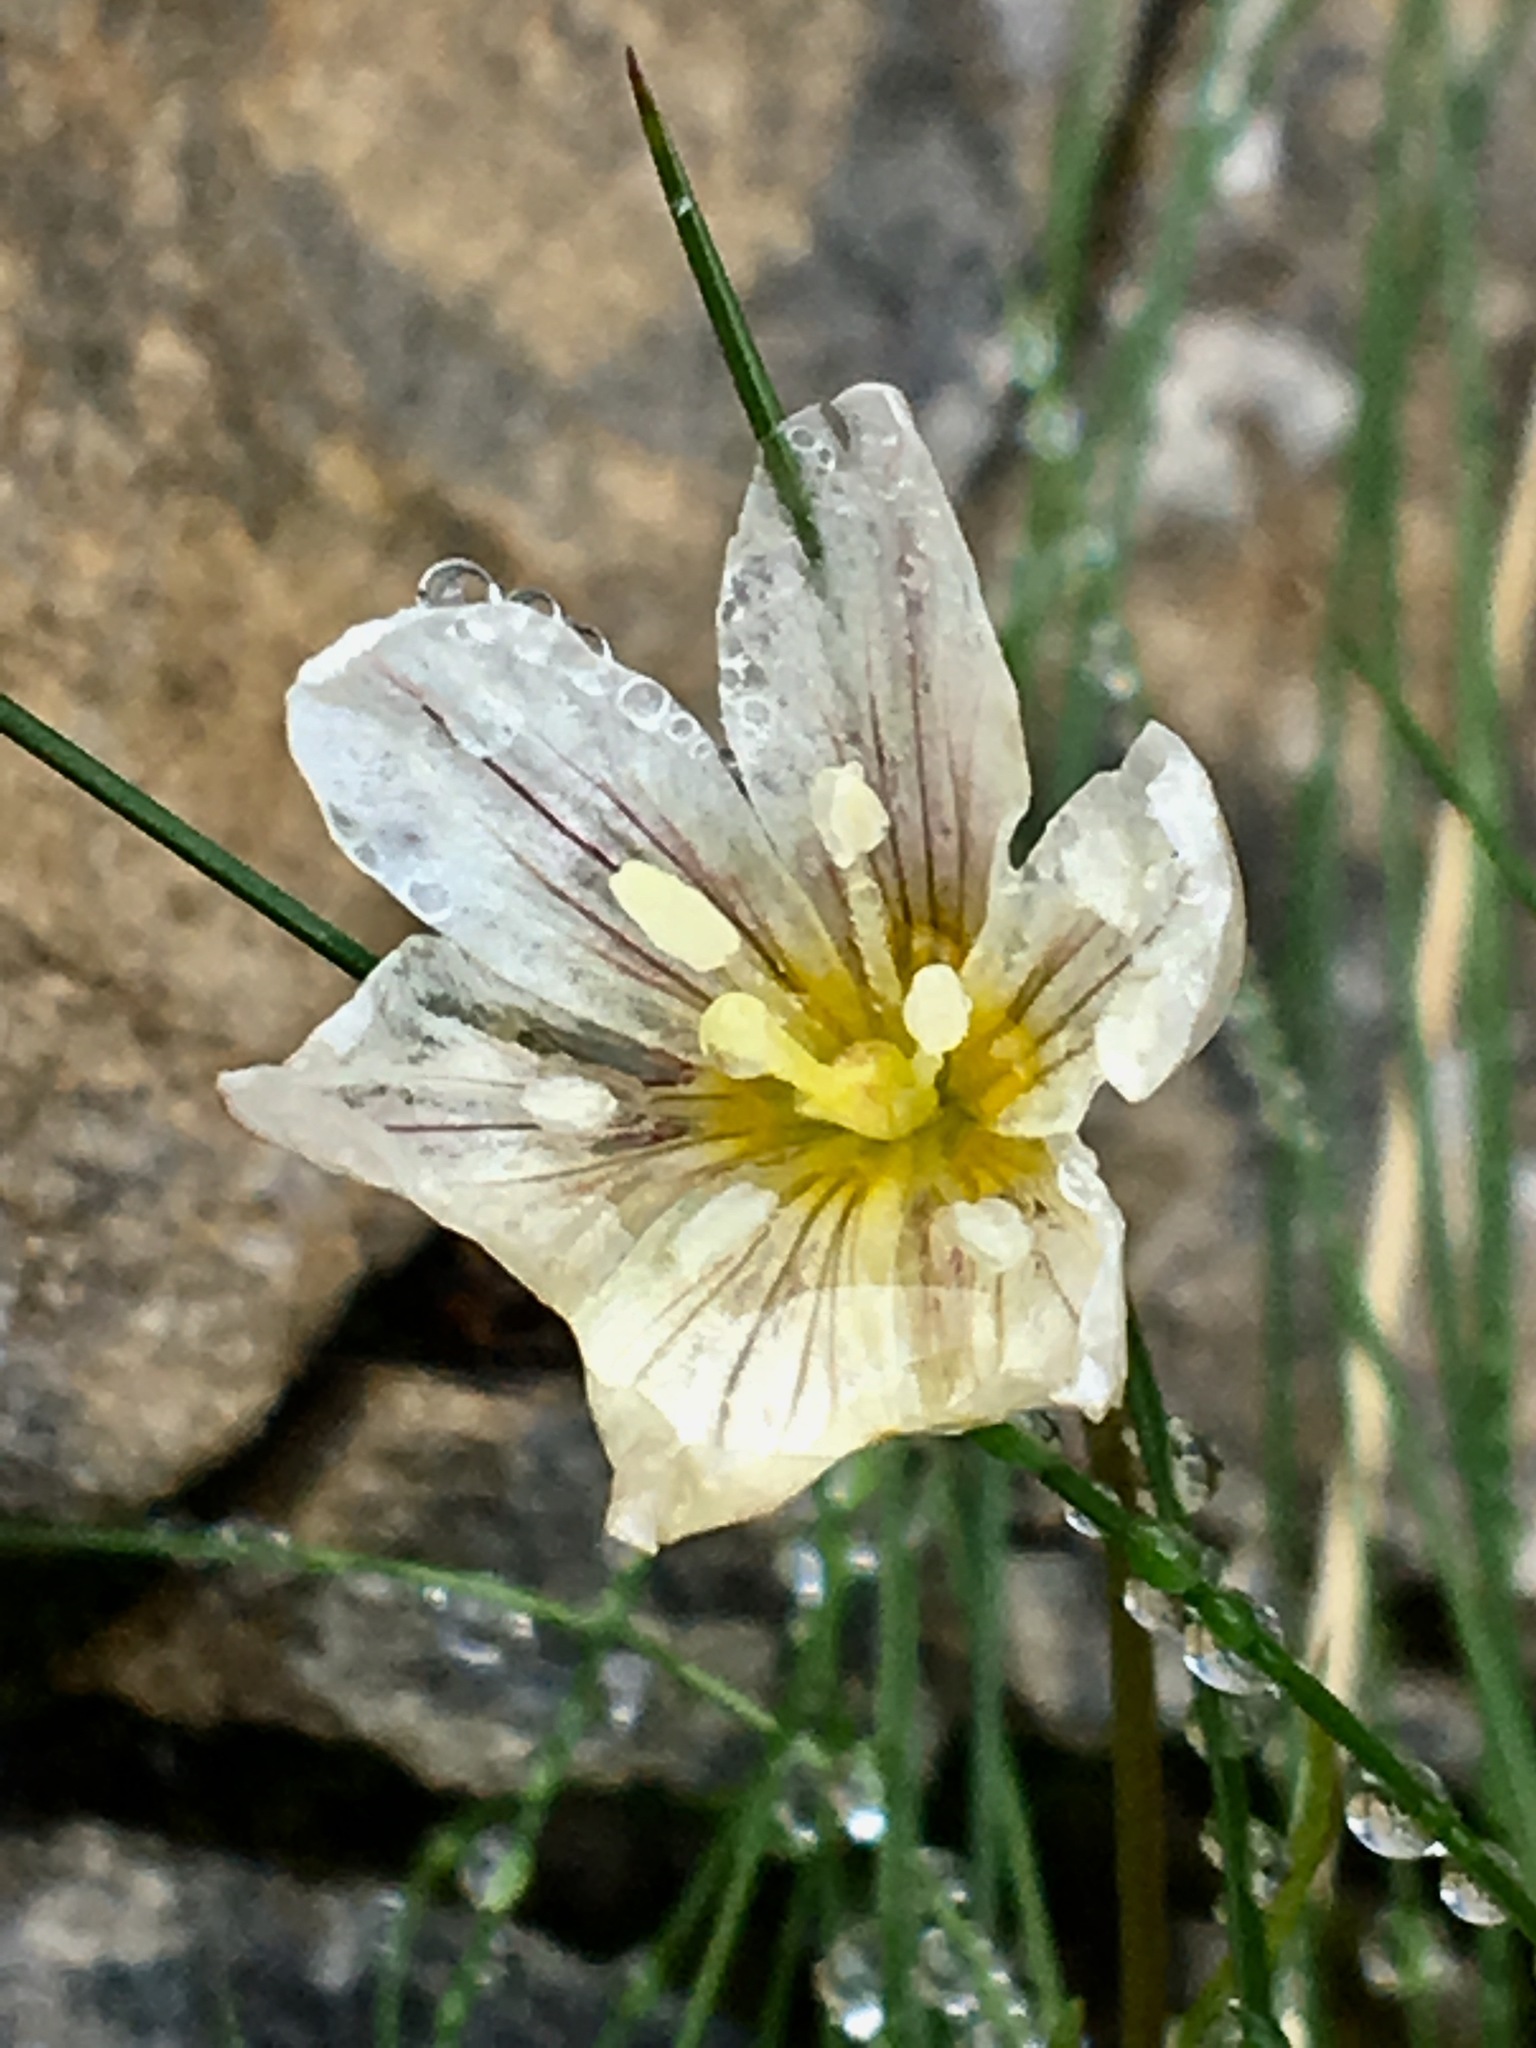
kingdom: Plantae
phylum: Tracheophyta
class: Liliopsida
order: Liliales
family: Liliaceae
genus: Gagea
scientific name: Gagea serotina
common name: Snowdon lily
